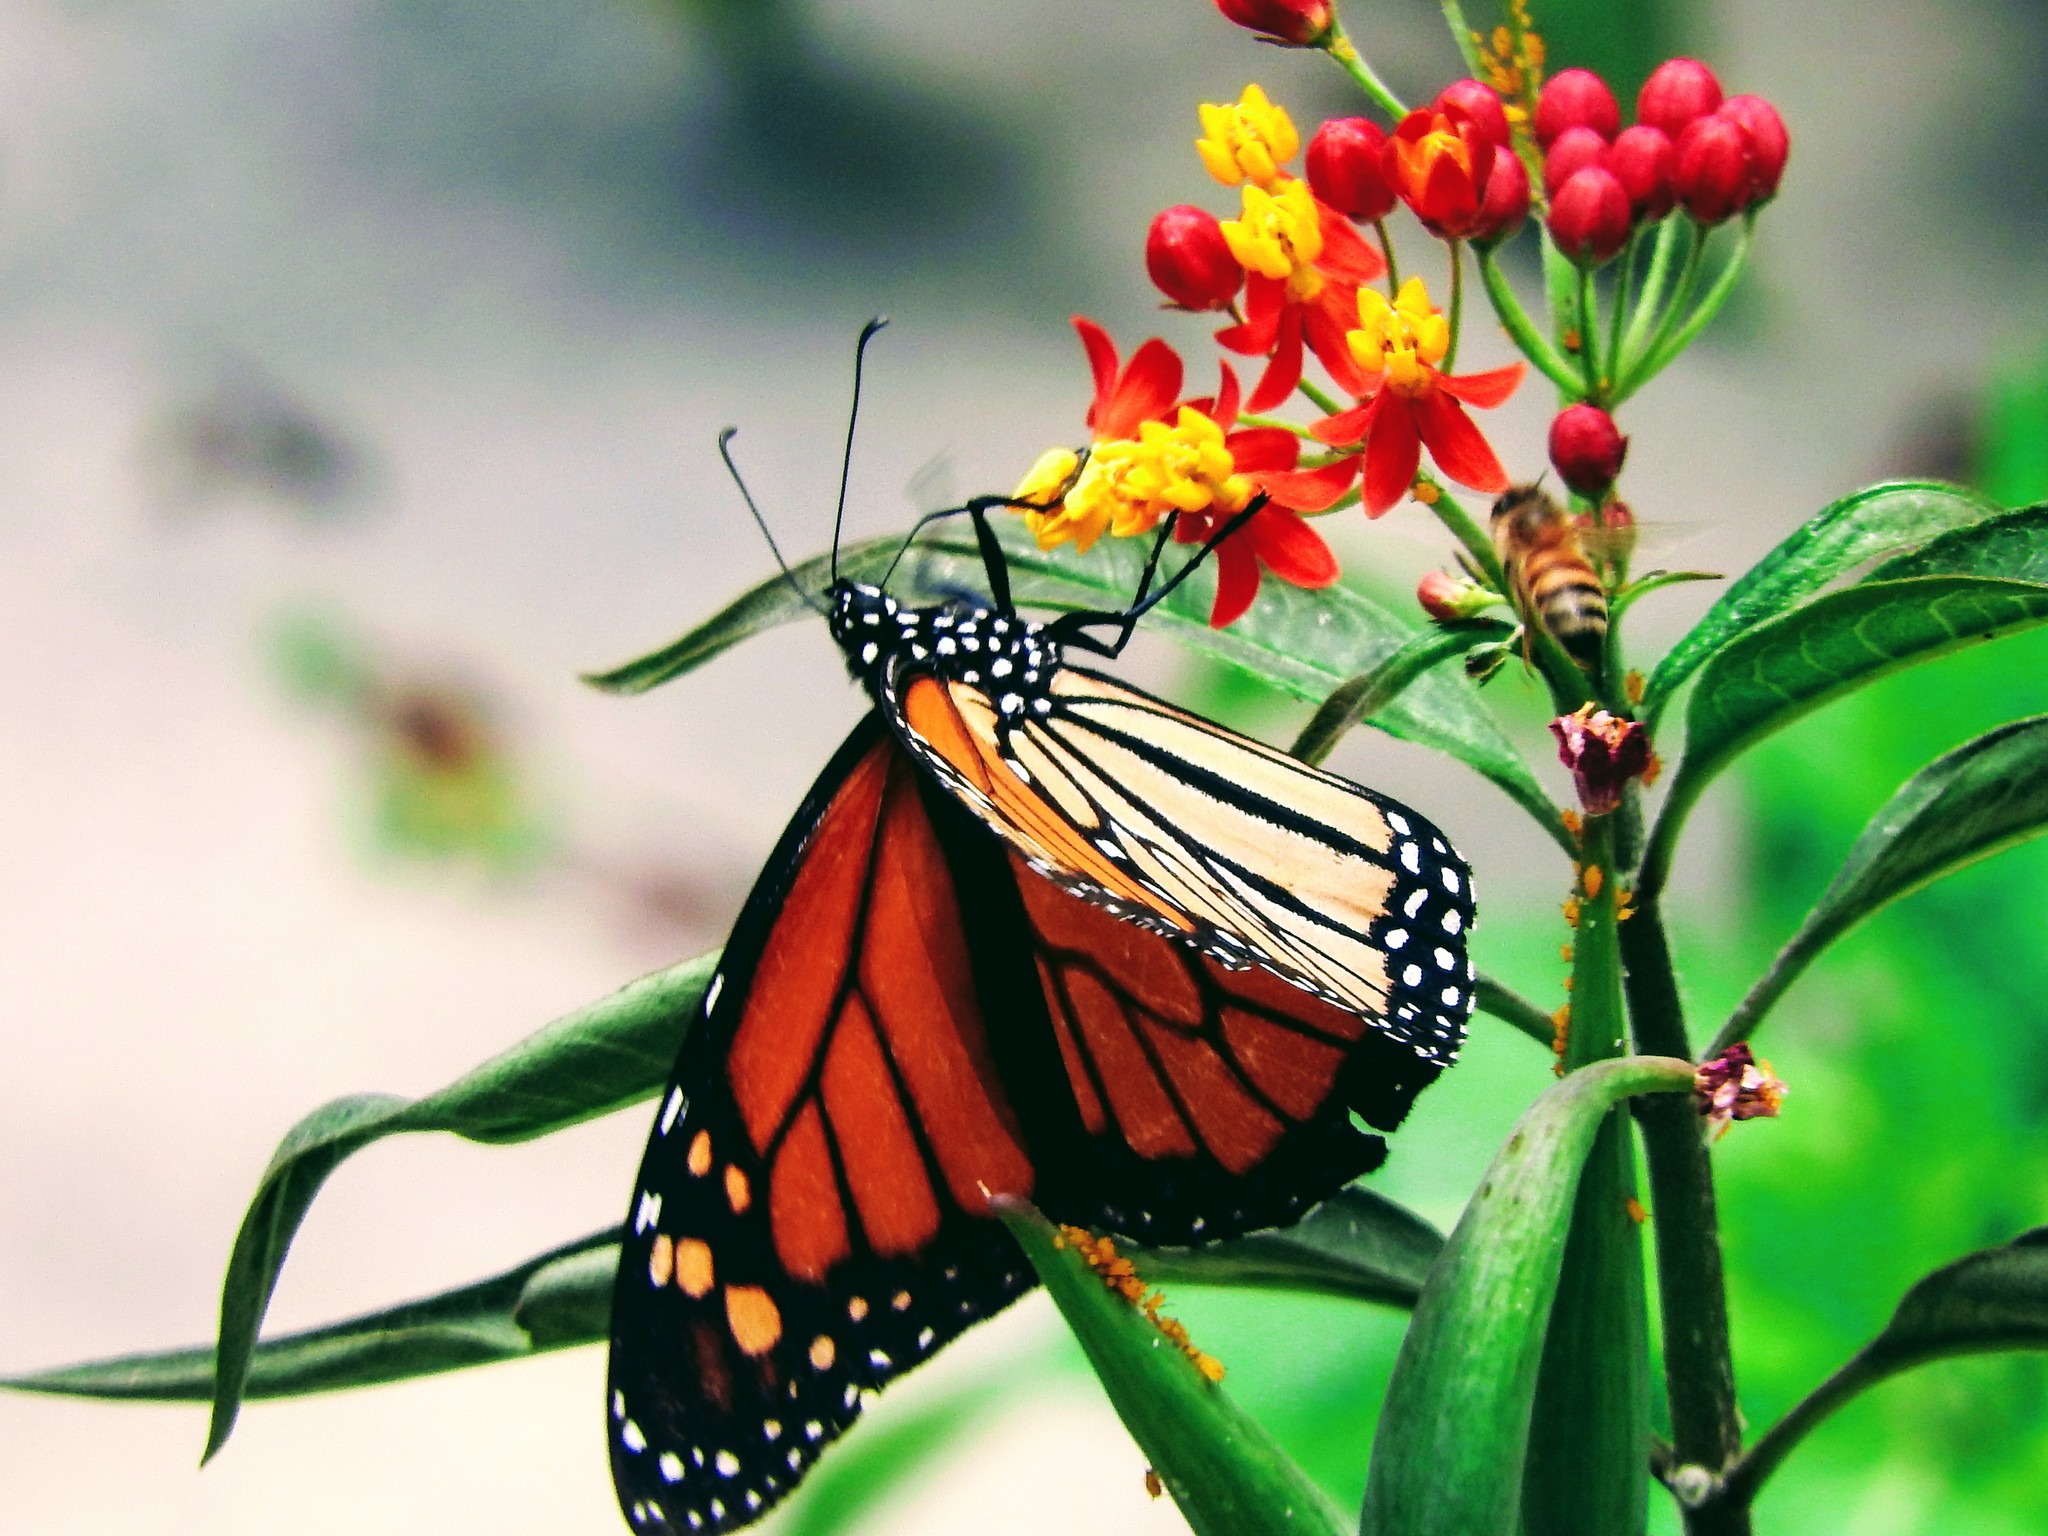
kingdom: Animalia
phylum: Arthropoda
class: Insecta
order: Lepidoptera
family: Nymphalidae
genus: Danaus
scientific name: Danaus plexippus
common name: Monarch
